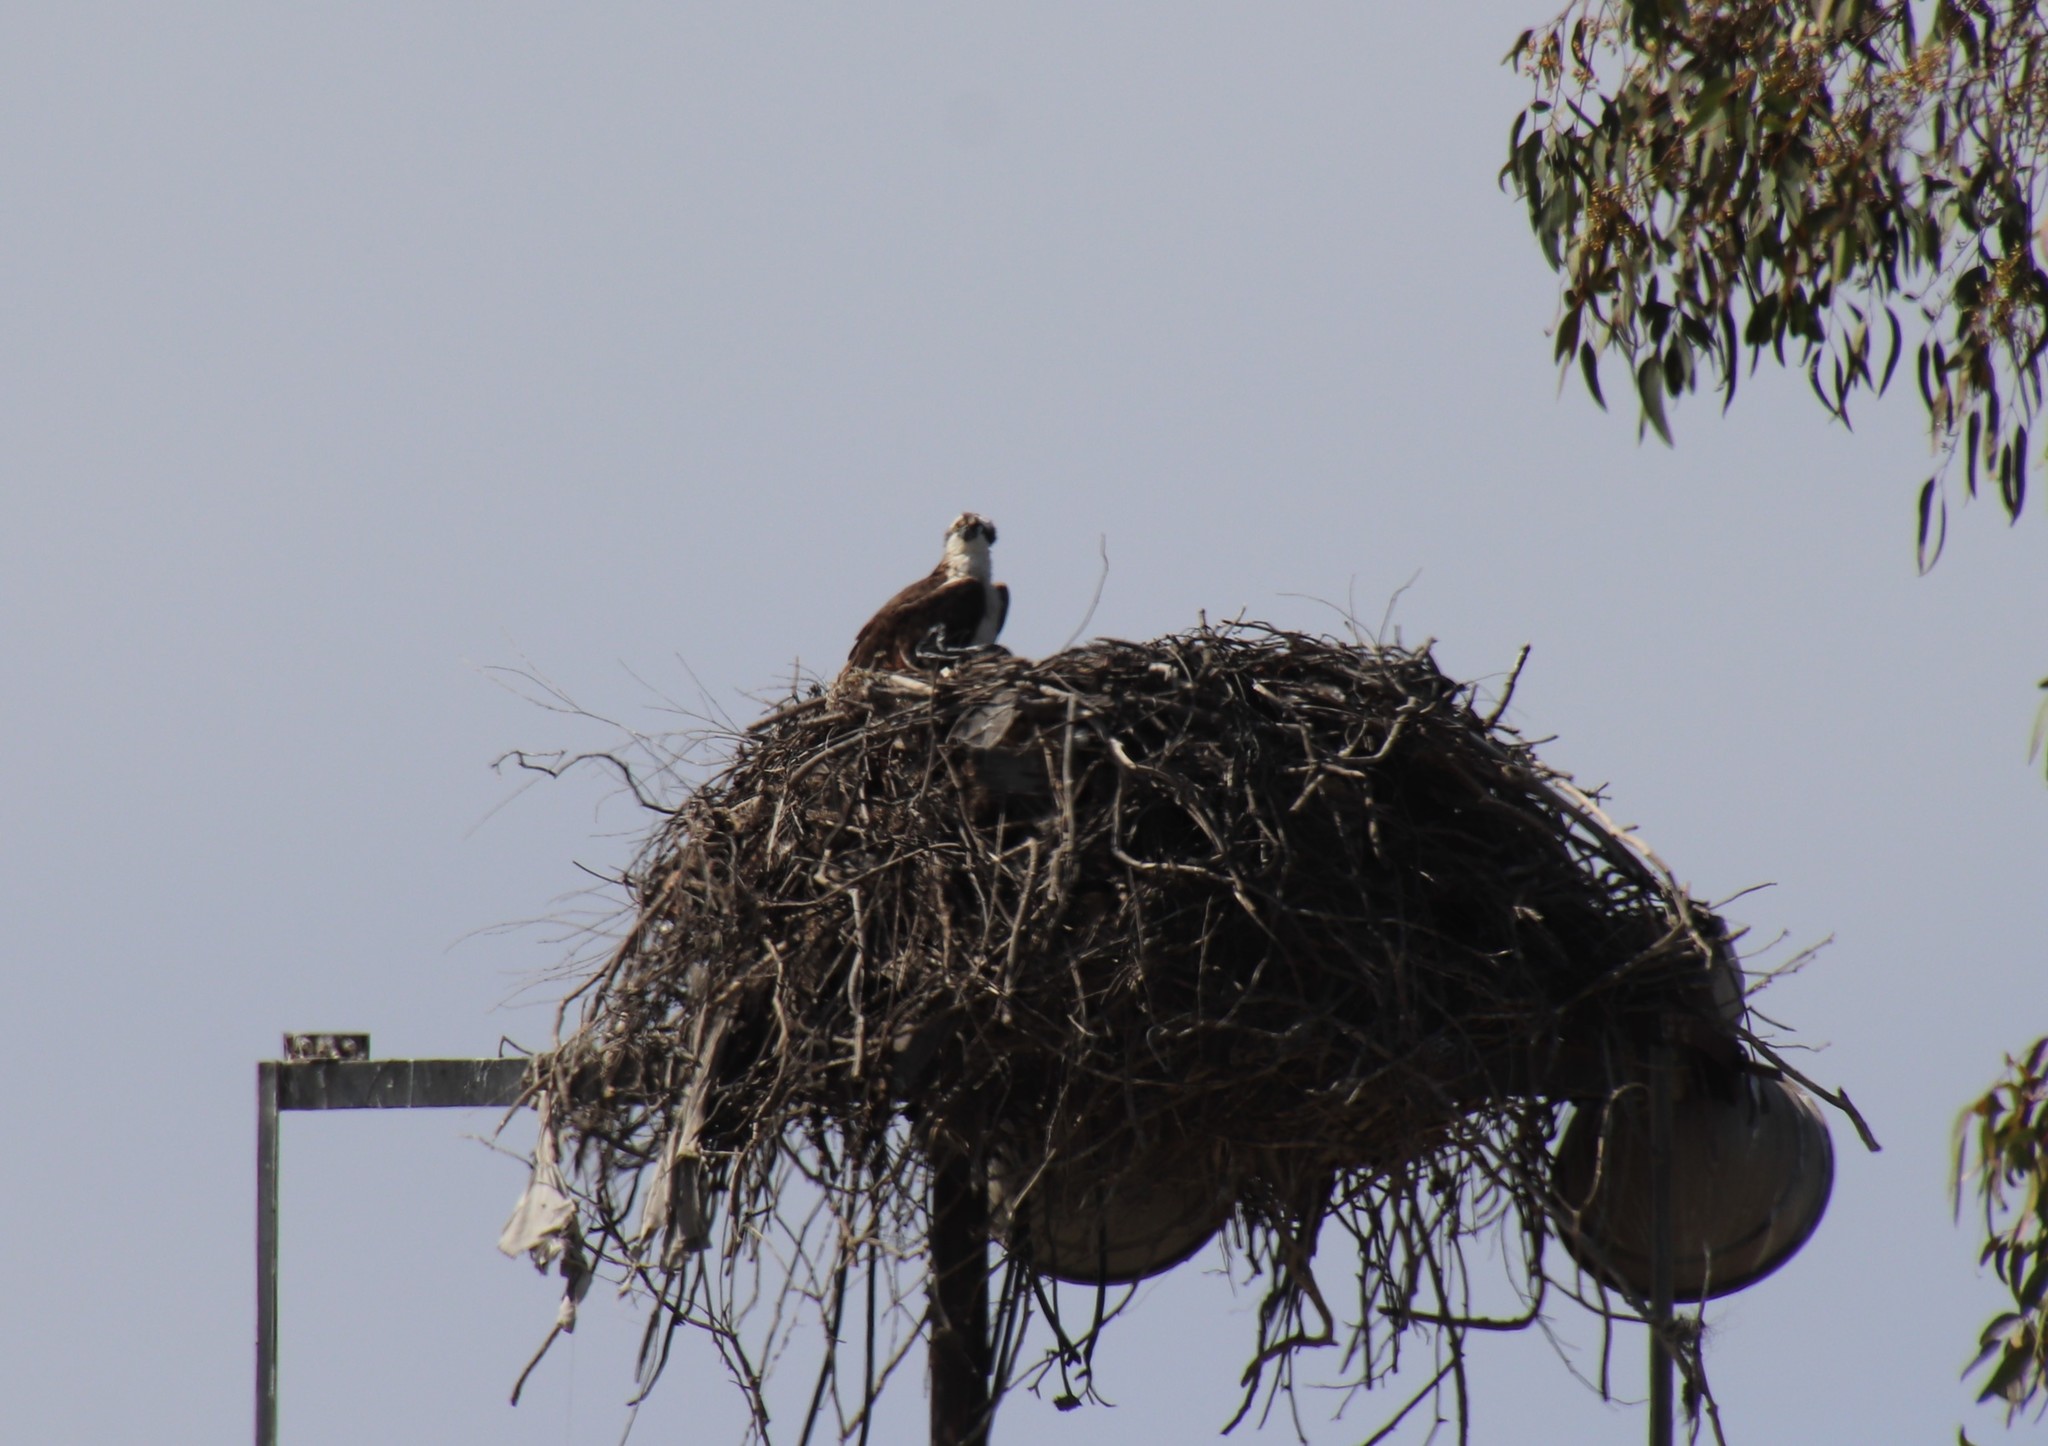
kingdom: Animalia
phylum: Chordata
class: Aves
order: Accipitriformes
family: Pandionidae
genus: Pandion
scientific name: Pandion haliaetus
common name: Osprey
